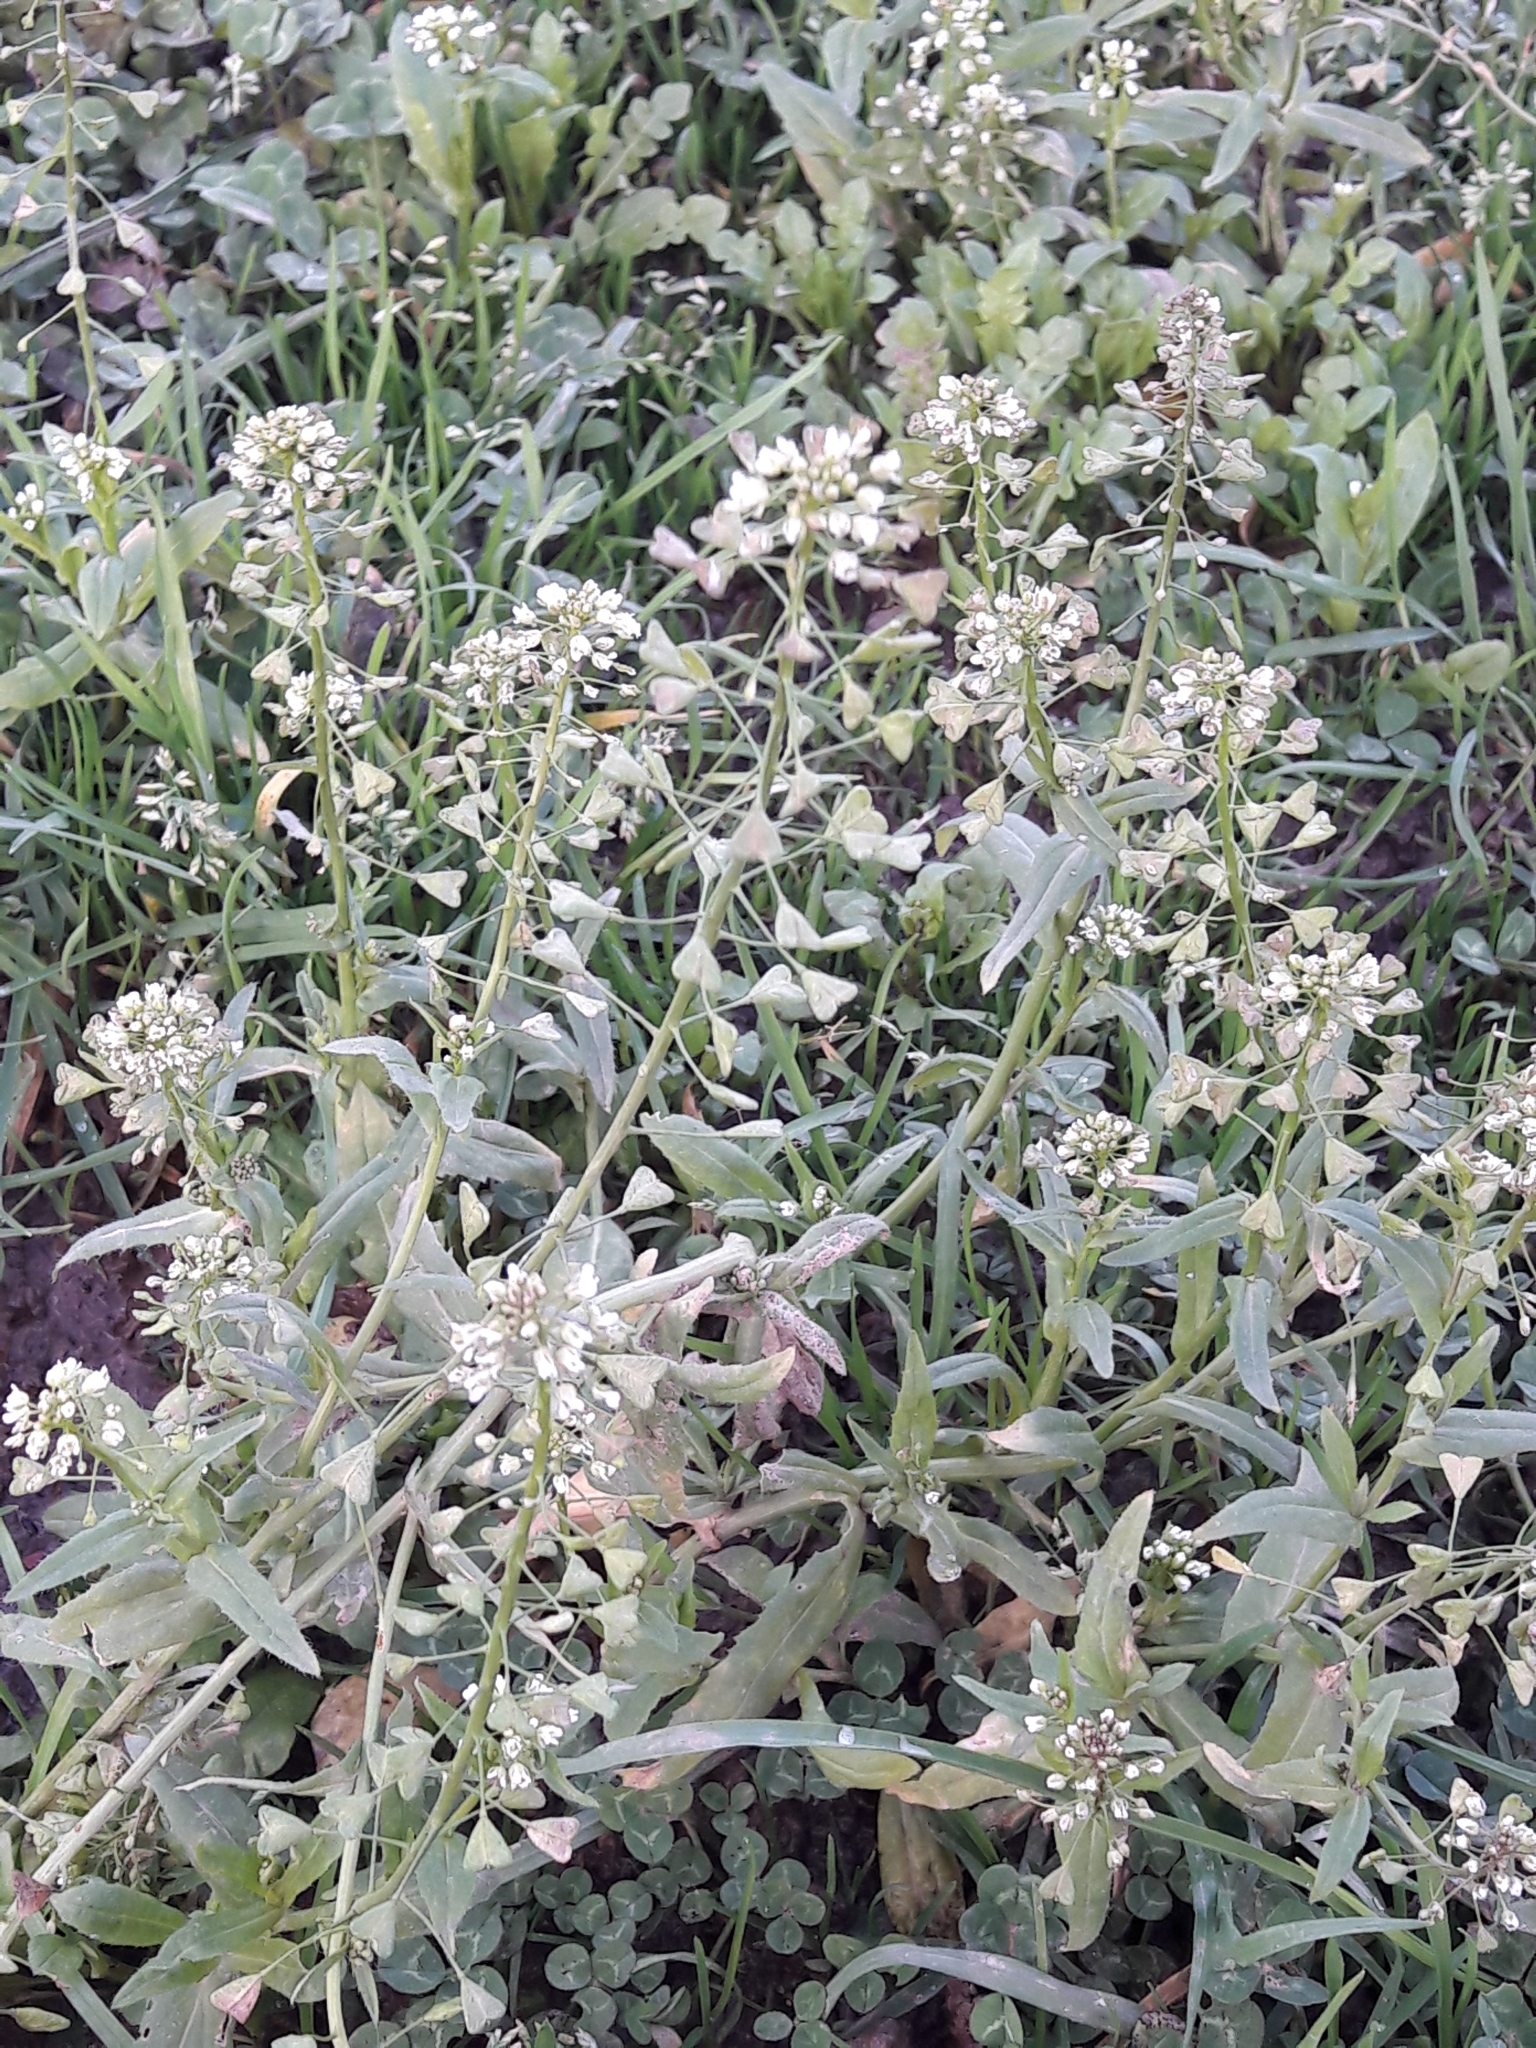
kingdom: Plantae
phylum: Tracheophyta
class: Magnoliopsida
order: Brassicales
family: Brassicaceae
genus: Capsella
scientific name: Capsella bursa-pastoris
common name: Shepherd's purse
